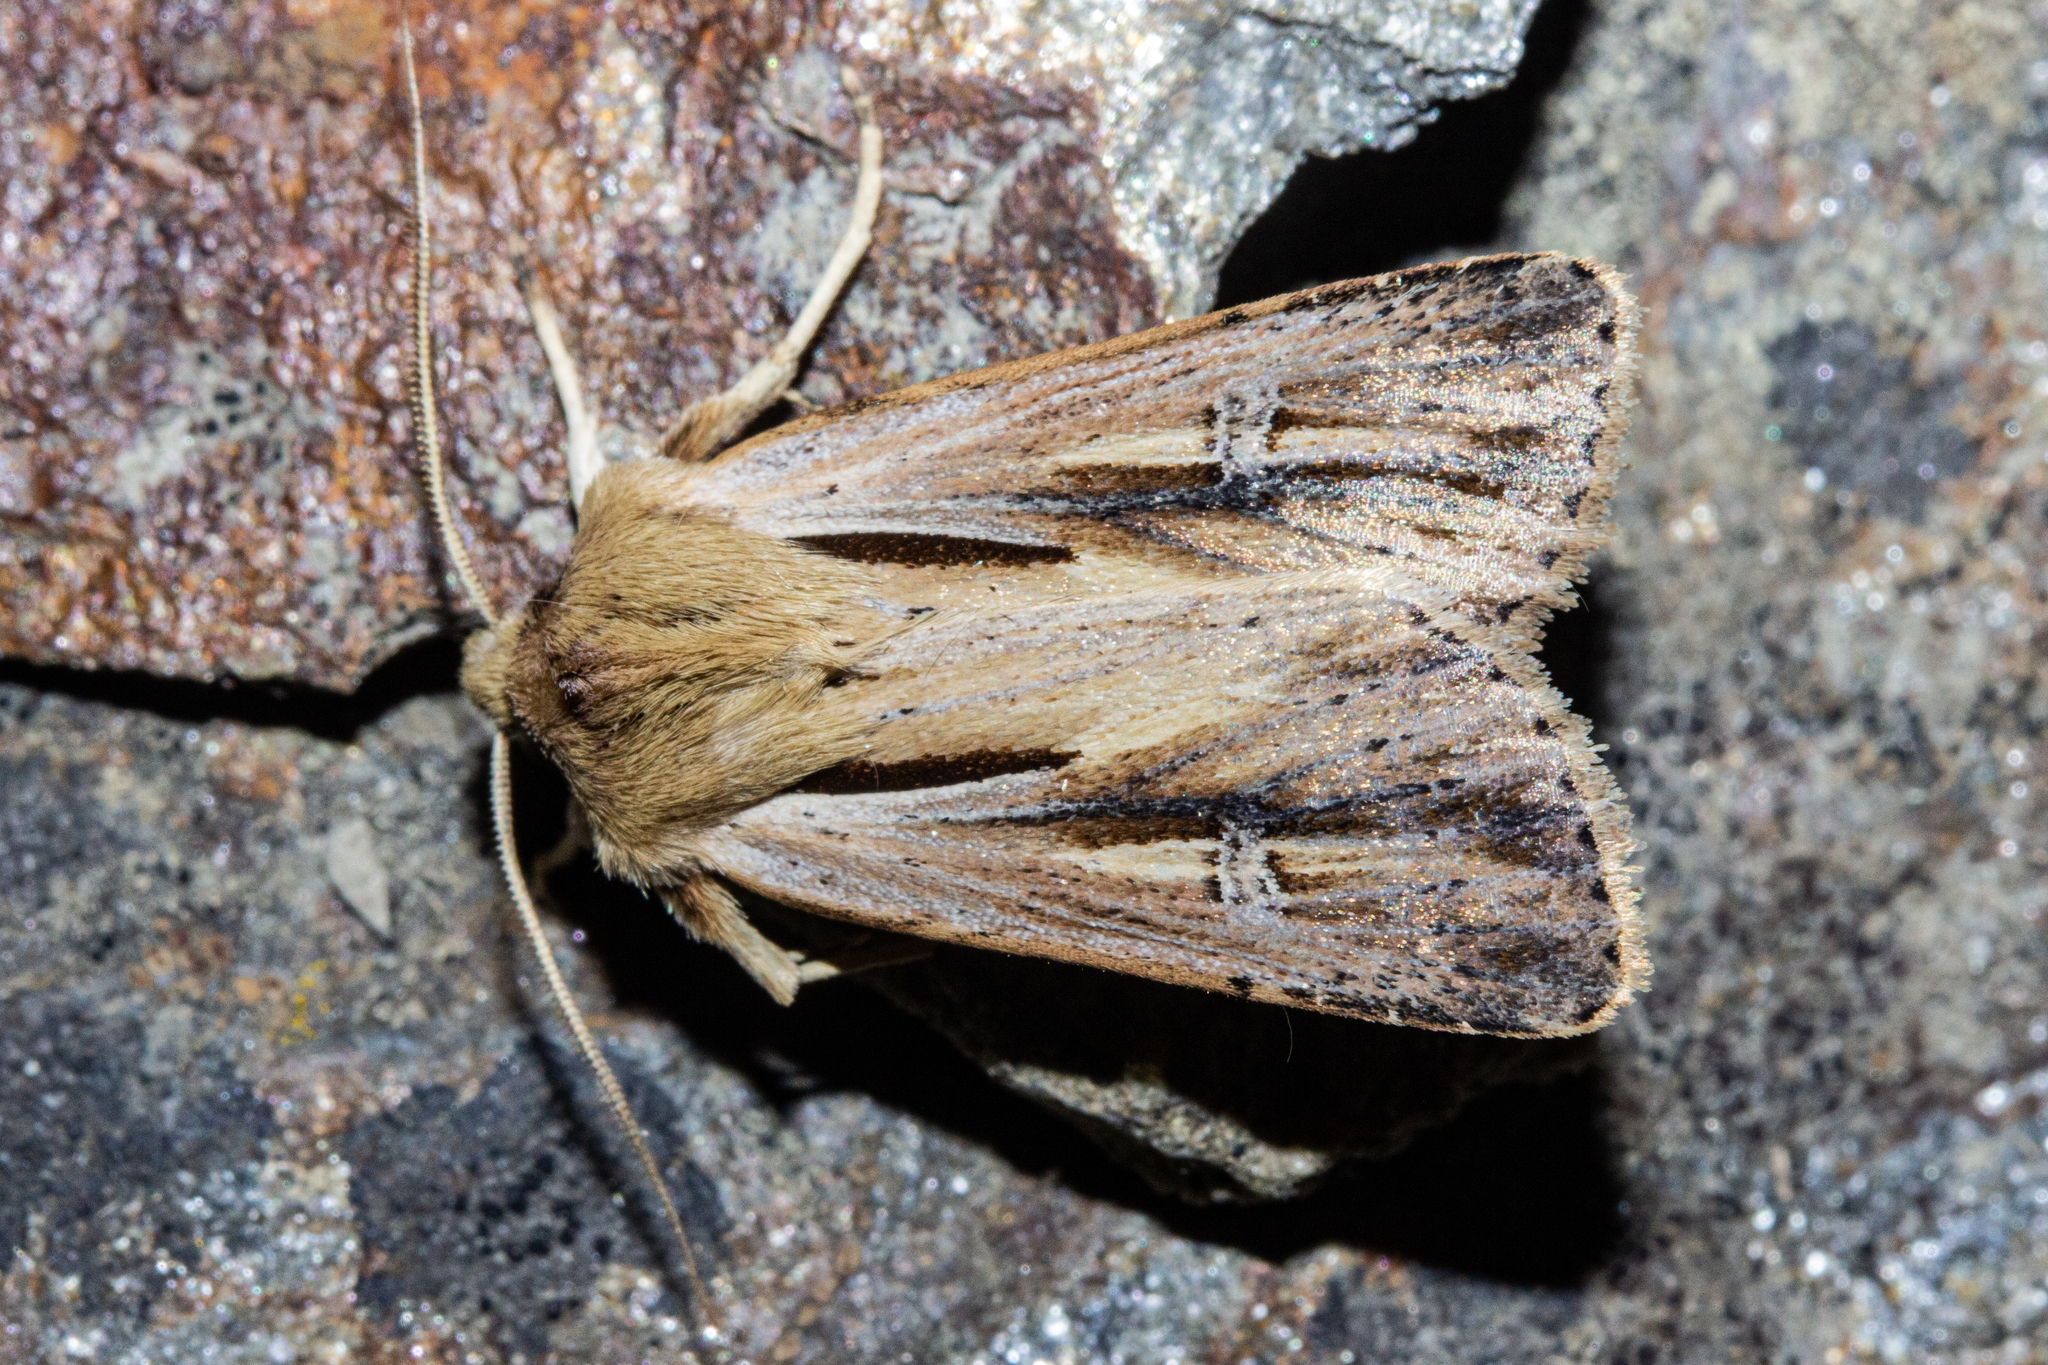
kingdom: Animalia
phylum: Arthropoda
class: Insecta
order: Lepidoptera
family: Noctuidae
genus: Ichneutica
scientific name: Ichneutica propria
